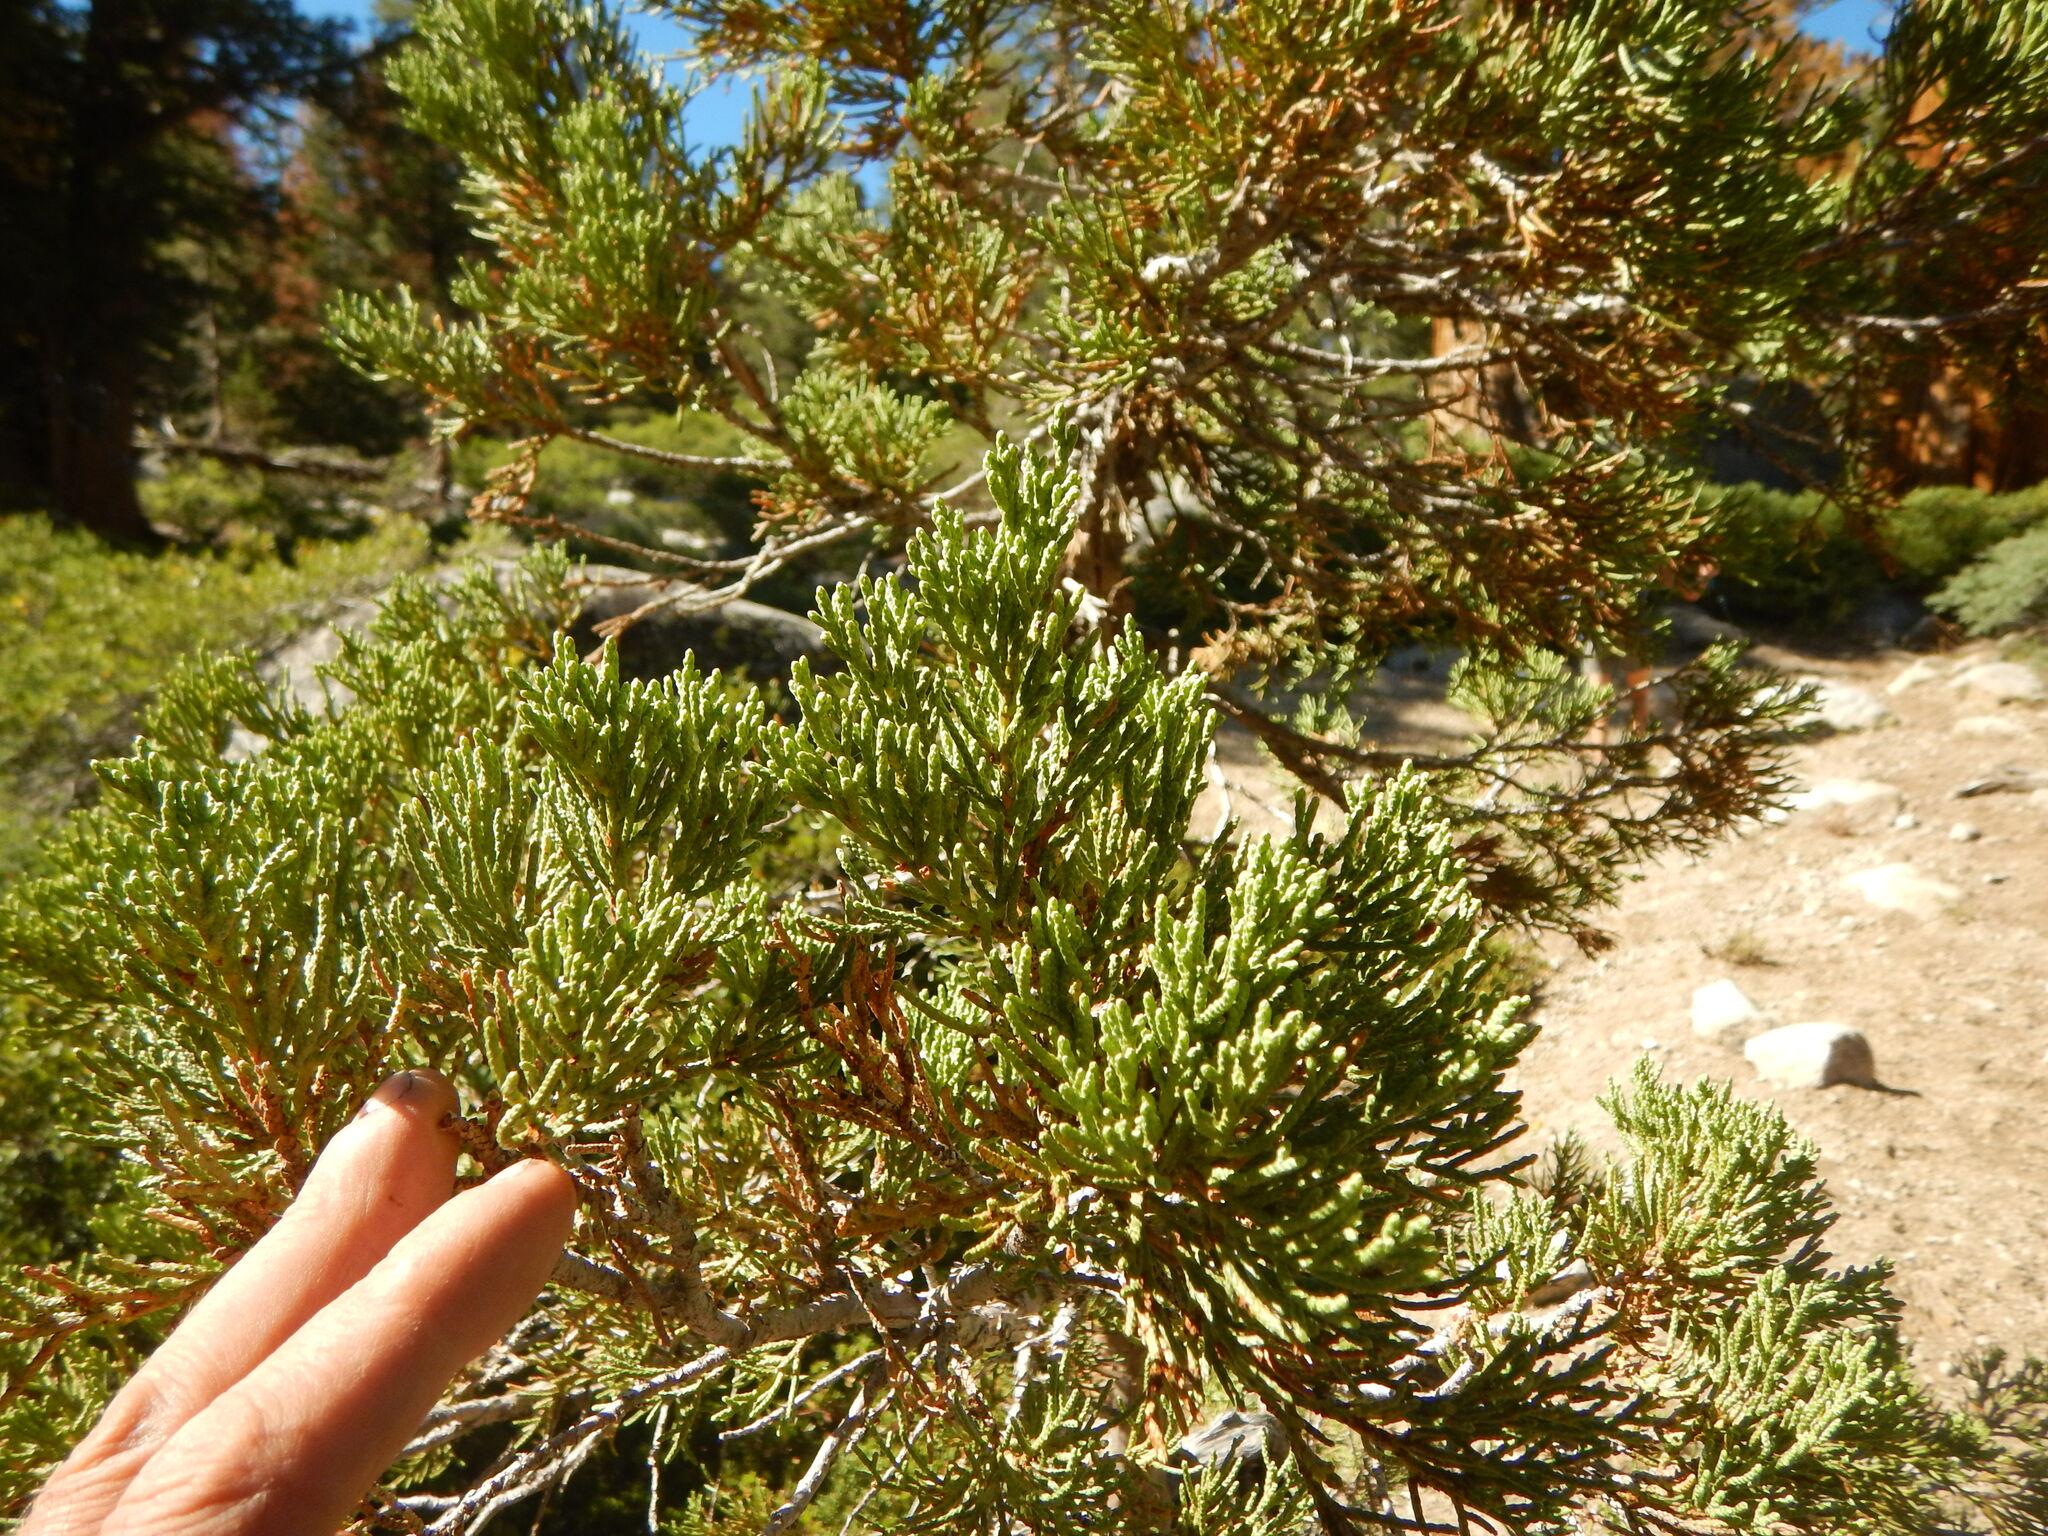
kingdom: Plantae
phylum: Tracheophyta
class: Pinopsida
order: Pinales
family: Cupressaceae
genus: Juniperus
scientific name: Juniperus occidentalis
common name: Western juniper
